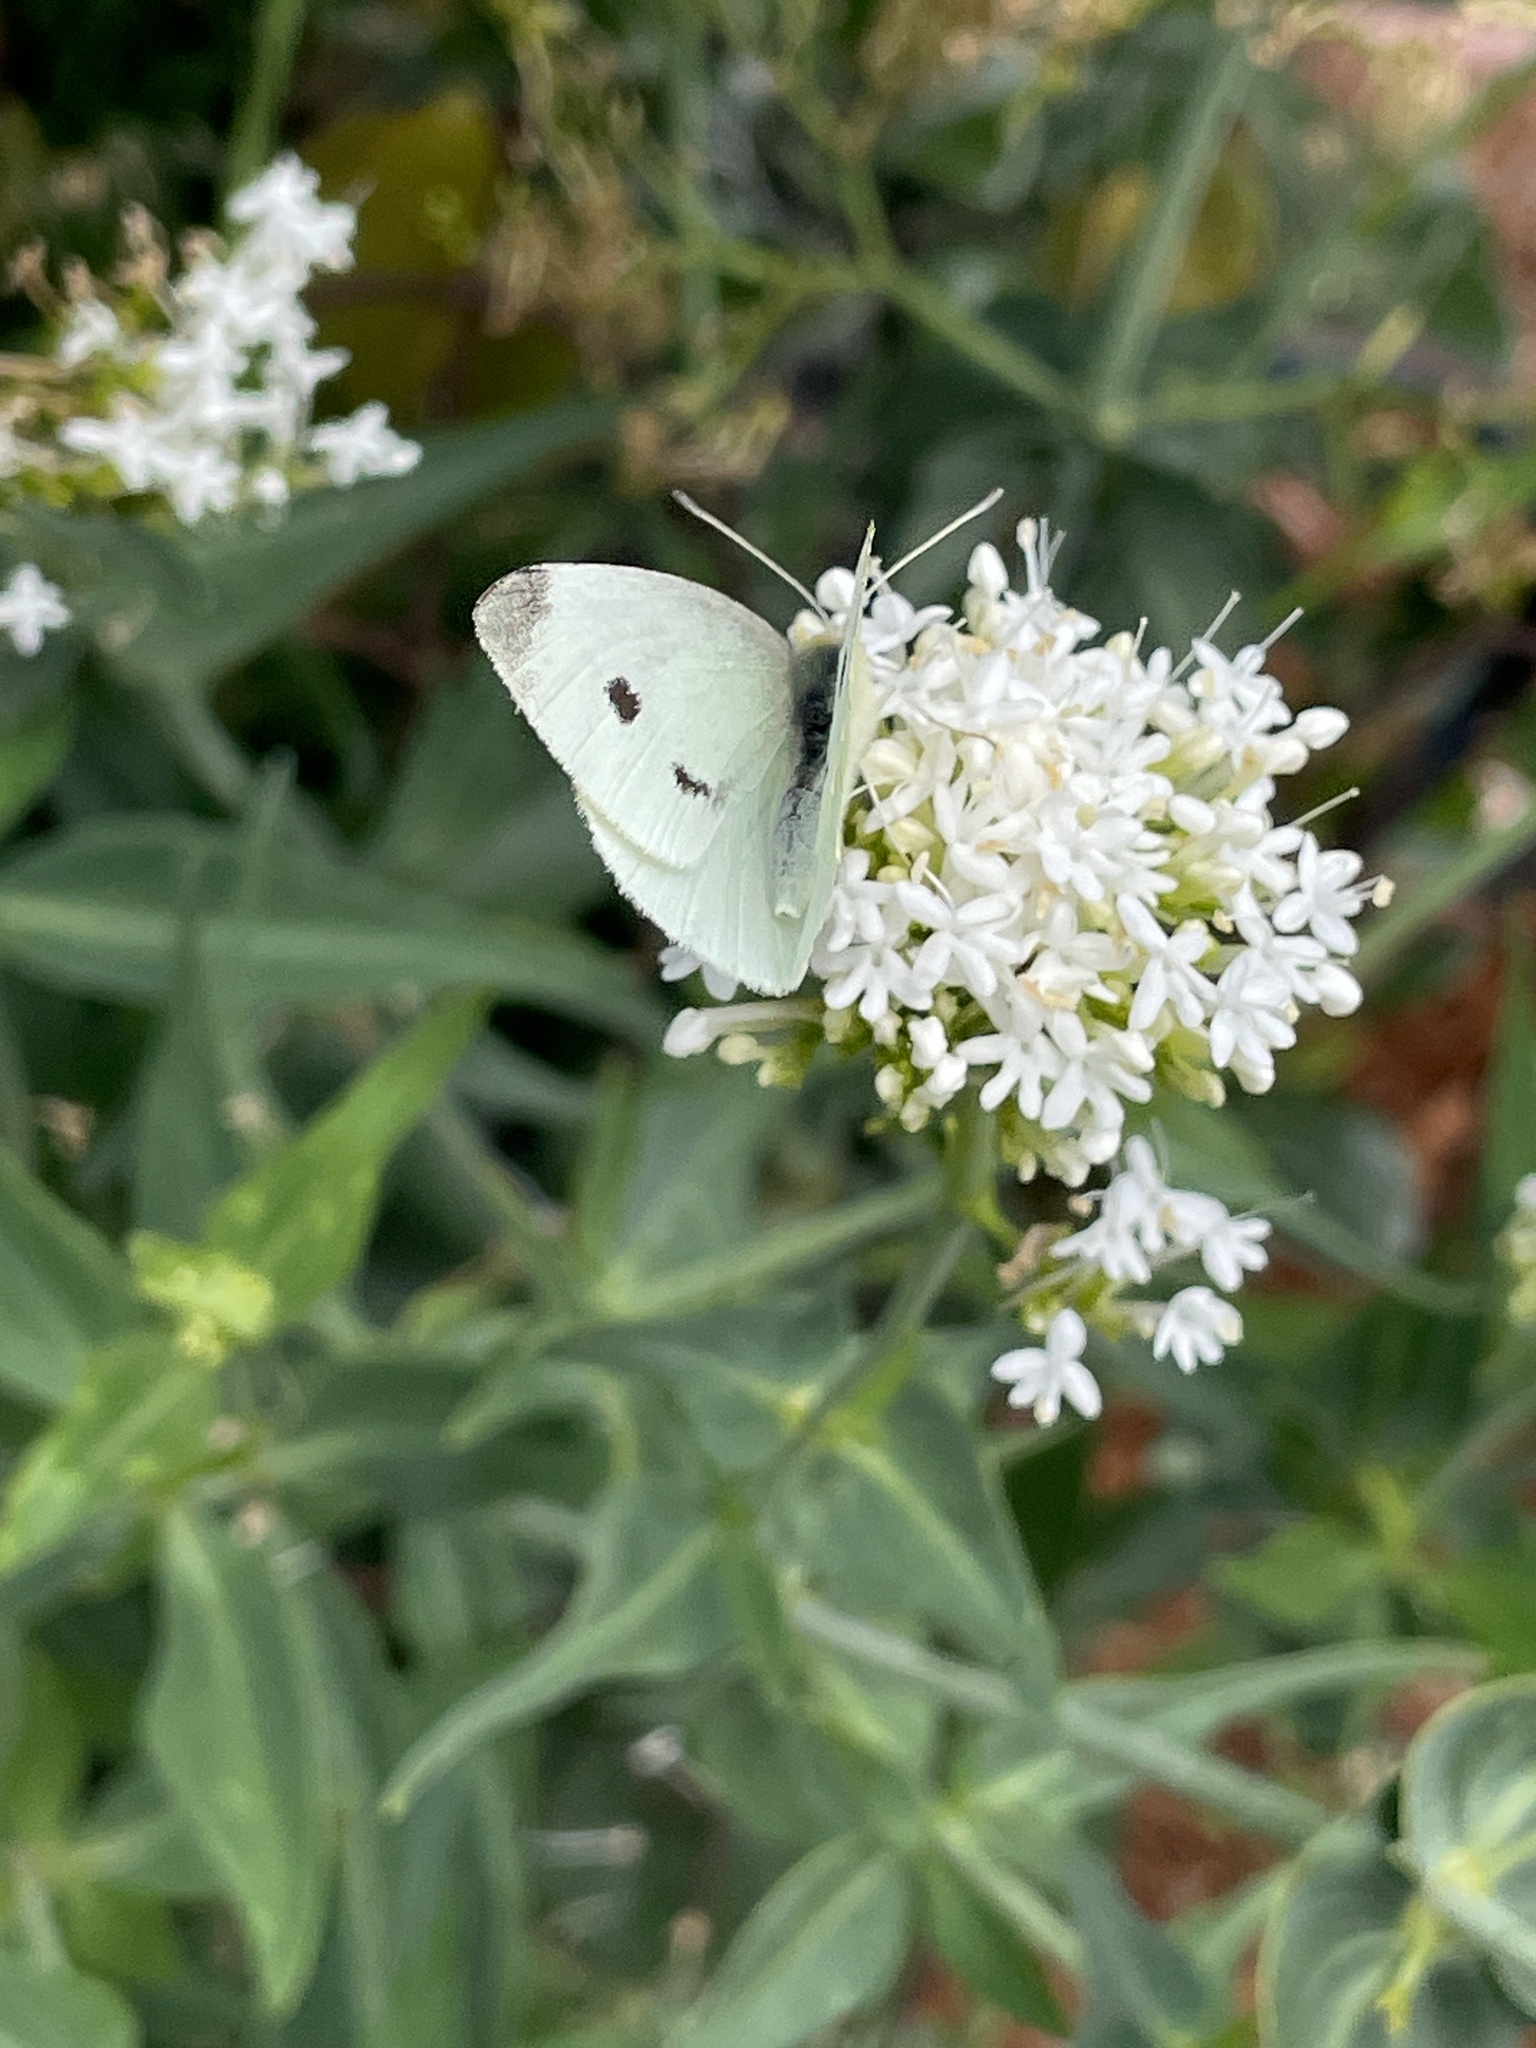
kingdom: Animalia
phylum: Arthropoda
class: Insecta
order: Lepidoptera
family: Pieridae
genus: Pieris
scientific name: Pieris rapae
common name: Small white
